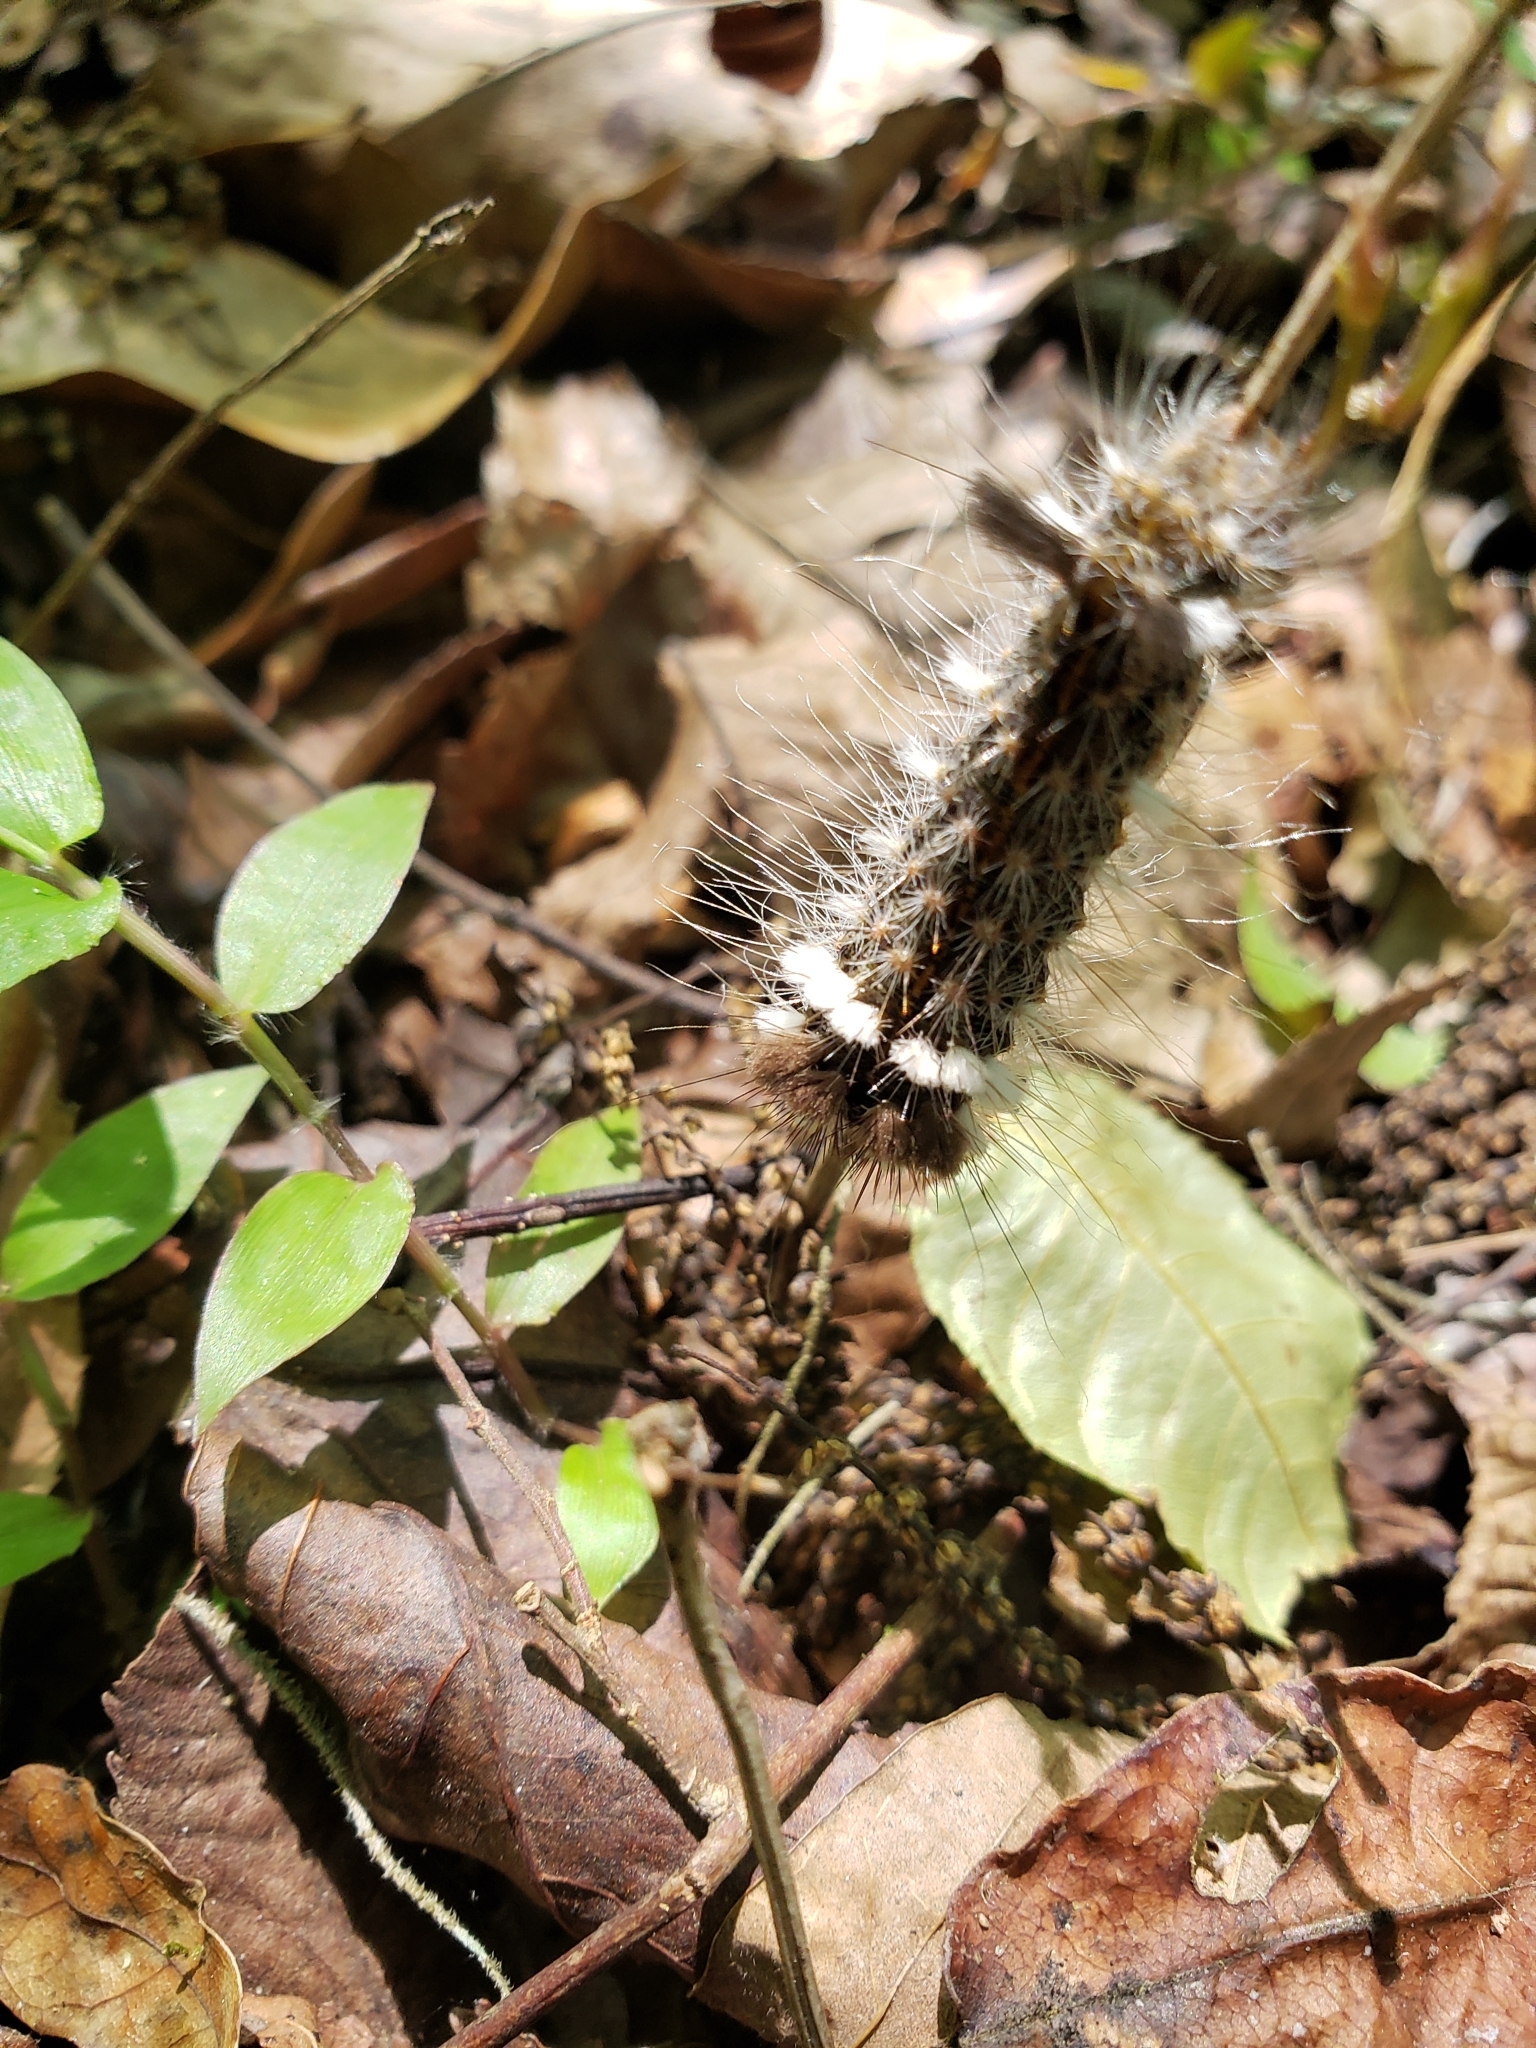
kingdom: Animalia
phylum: Arthropoda
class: Insecta
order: Lepidoptera
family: Noctuidae
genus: Acronicta
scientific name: Acronicta impleta
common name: Powdered dagger
